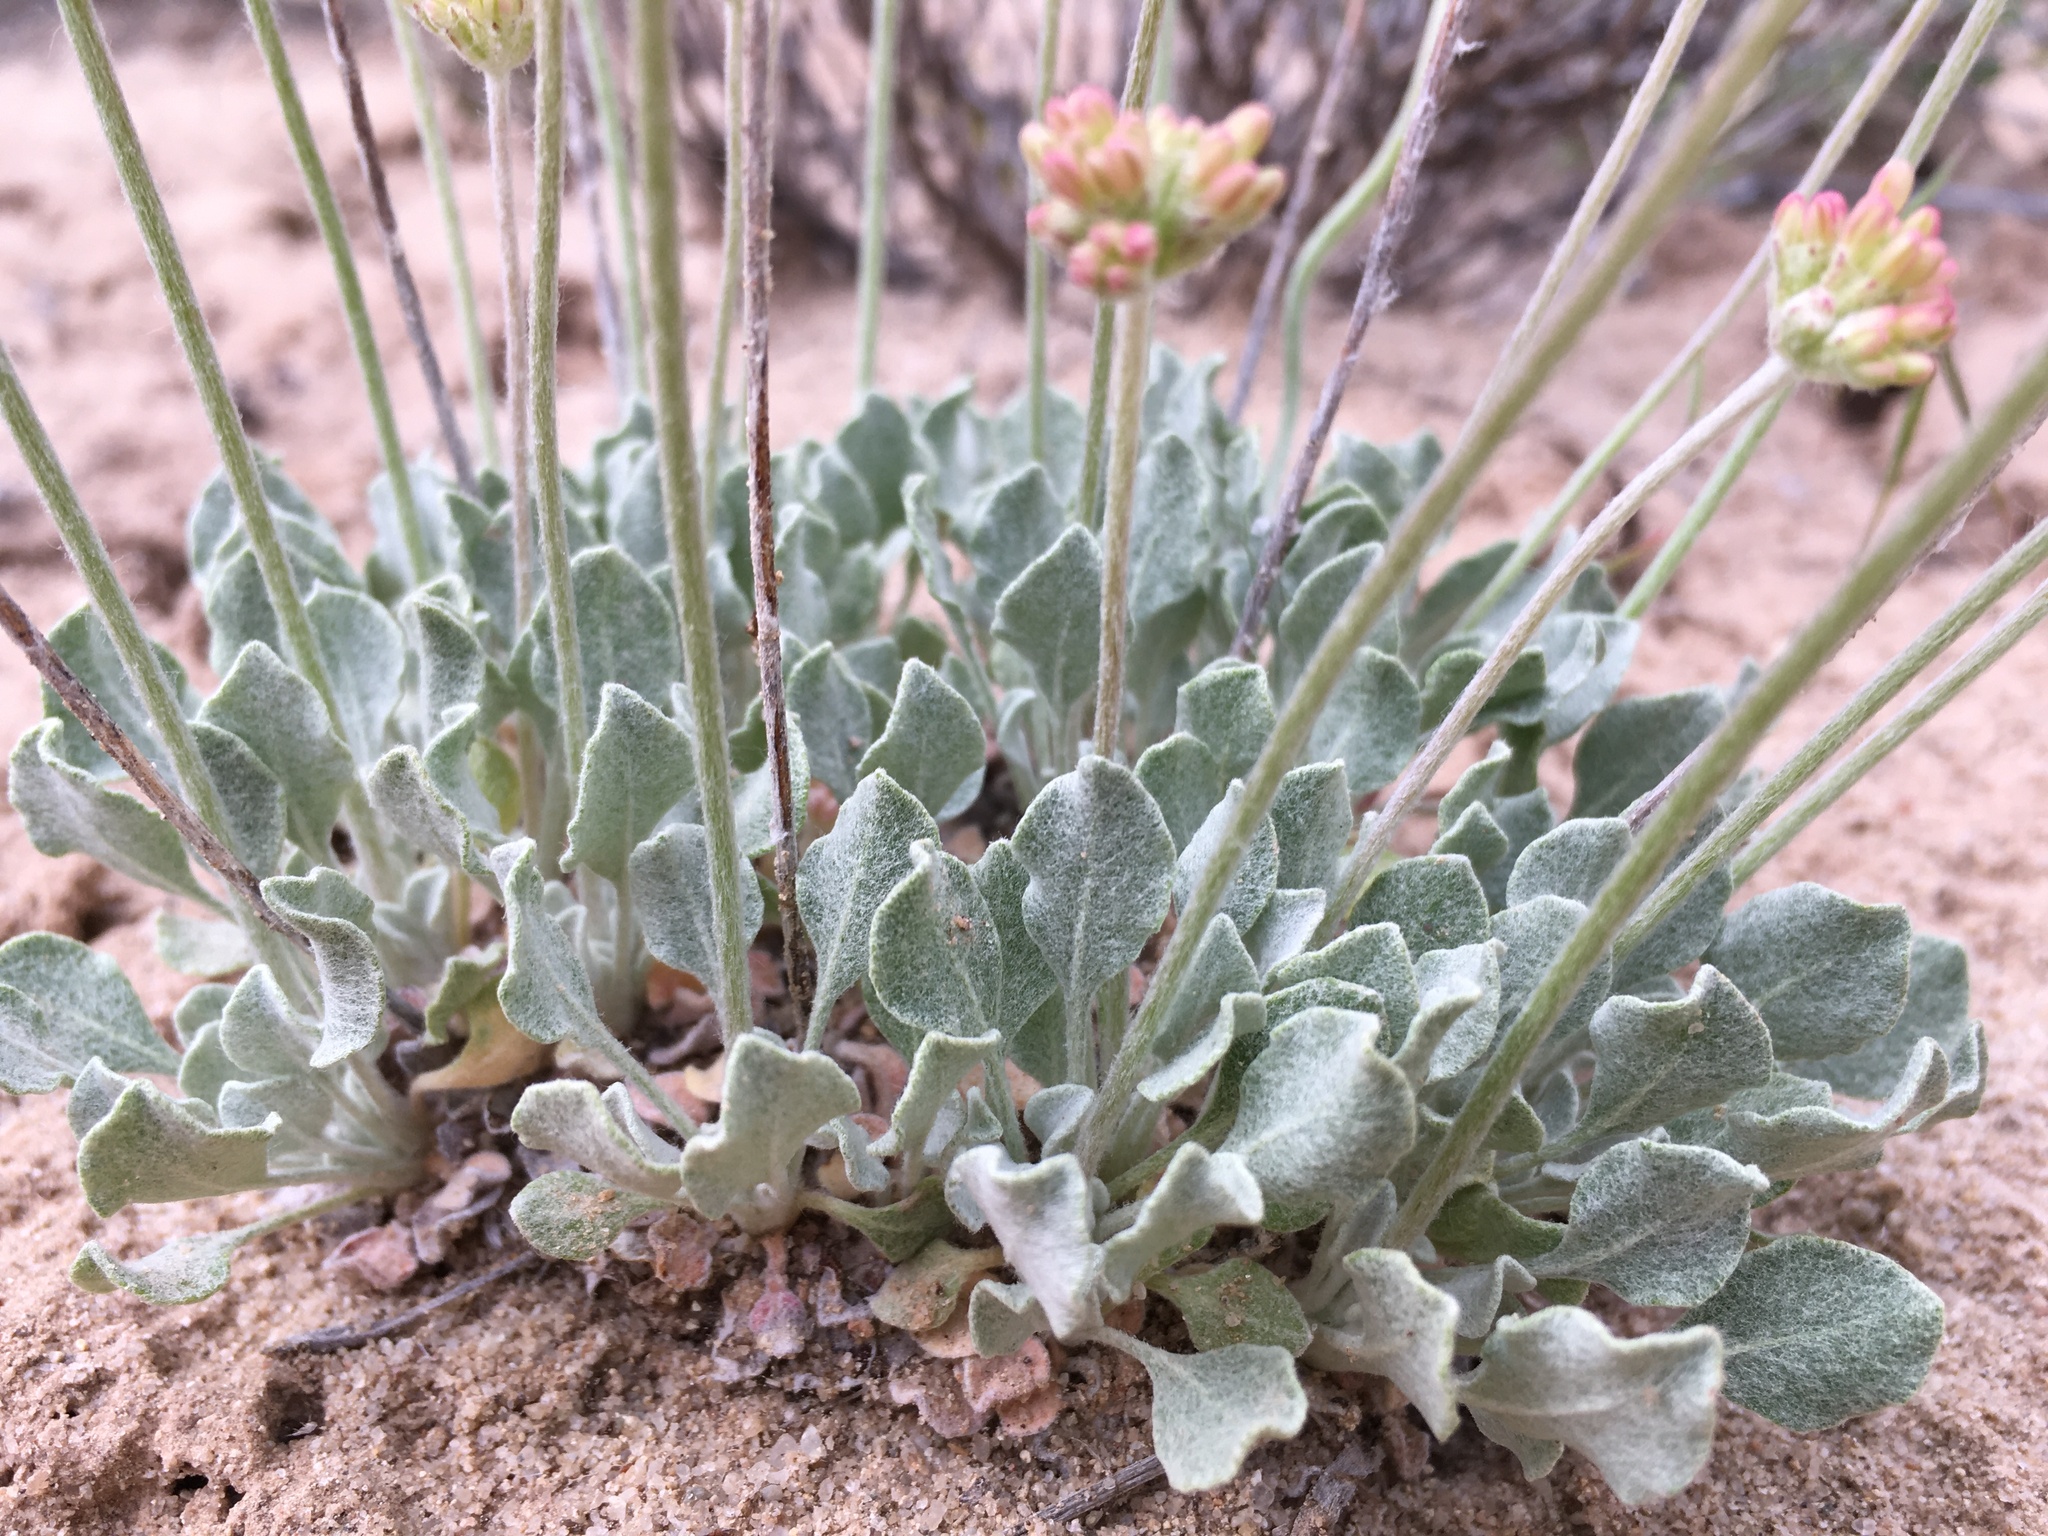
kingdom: Plantae
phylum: Tracheophyta
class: Magnoliopsida
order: Caryophyllales
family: Polygonaceae
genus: Eriogonum
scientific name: Eriogonum ovalifolium
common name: Cushion buckwheat
